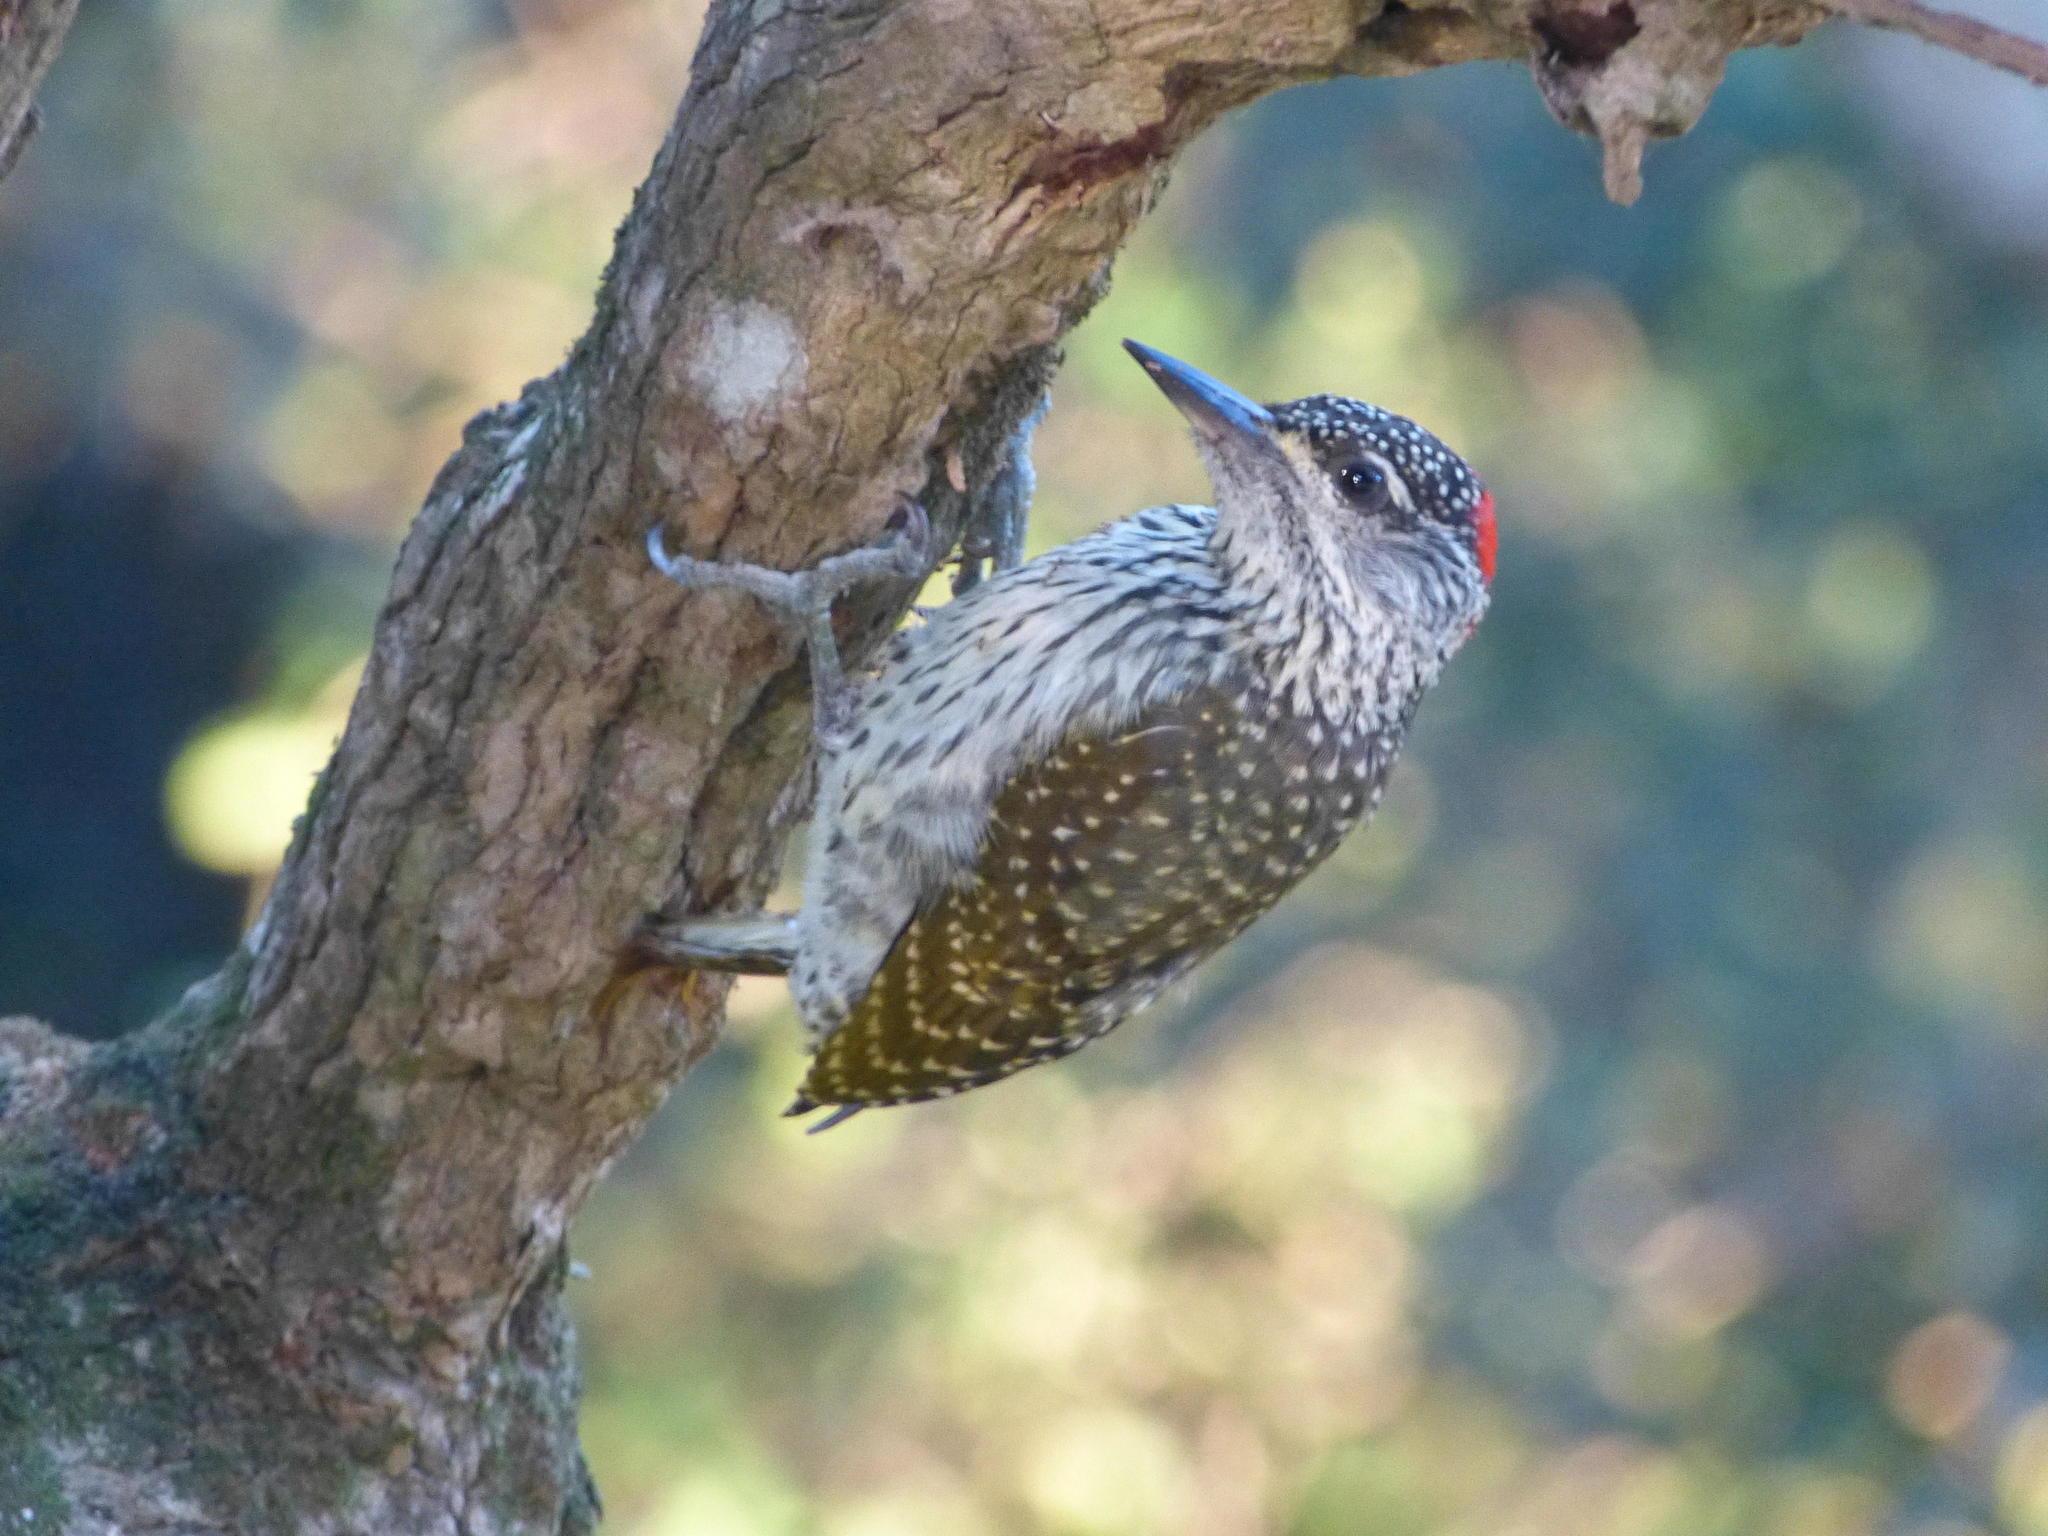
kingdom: Animalia
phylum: Chordata
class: Aves
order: Piciformes
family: Picidae
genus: Campethera
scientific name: Campethera abingoni
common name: Golden-tailed woodpecker
